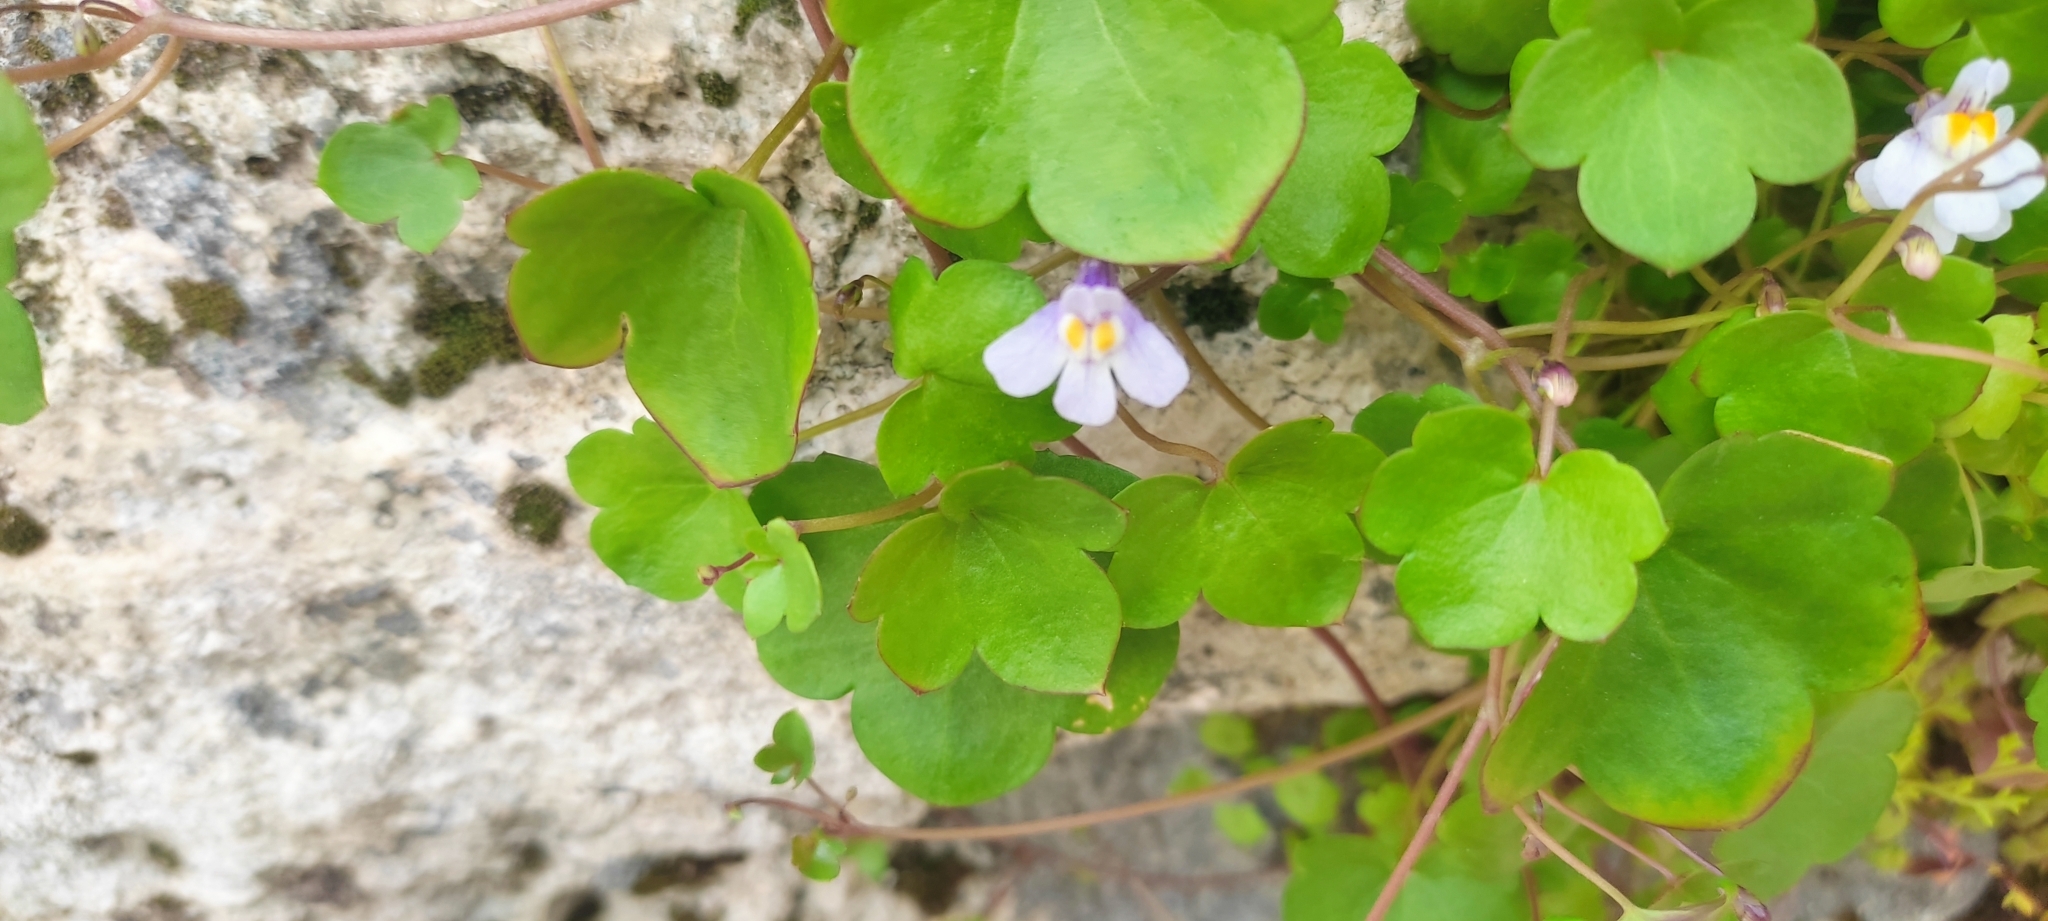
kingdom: Plantae
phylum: Tracheophyta
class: Magnoliopsida
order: Lamiales
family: Plantaginaceae
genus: Cymbalaria
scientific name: Cymbalaria muralis
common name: Ivy-leaved toadflax
